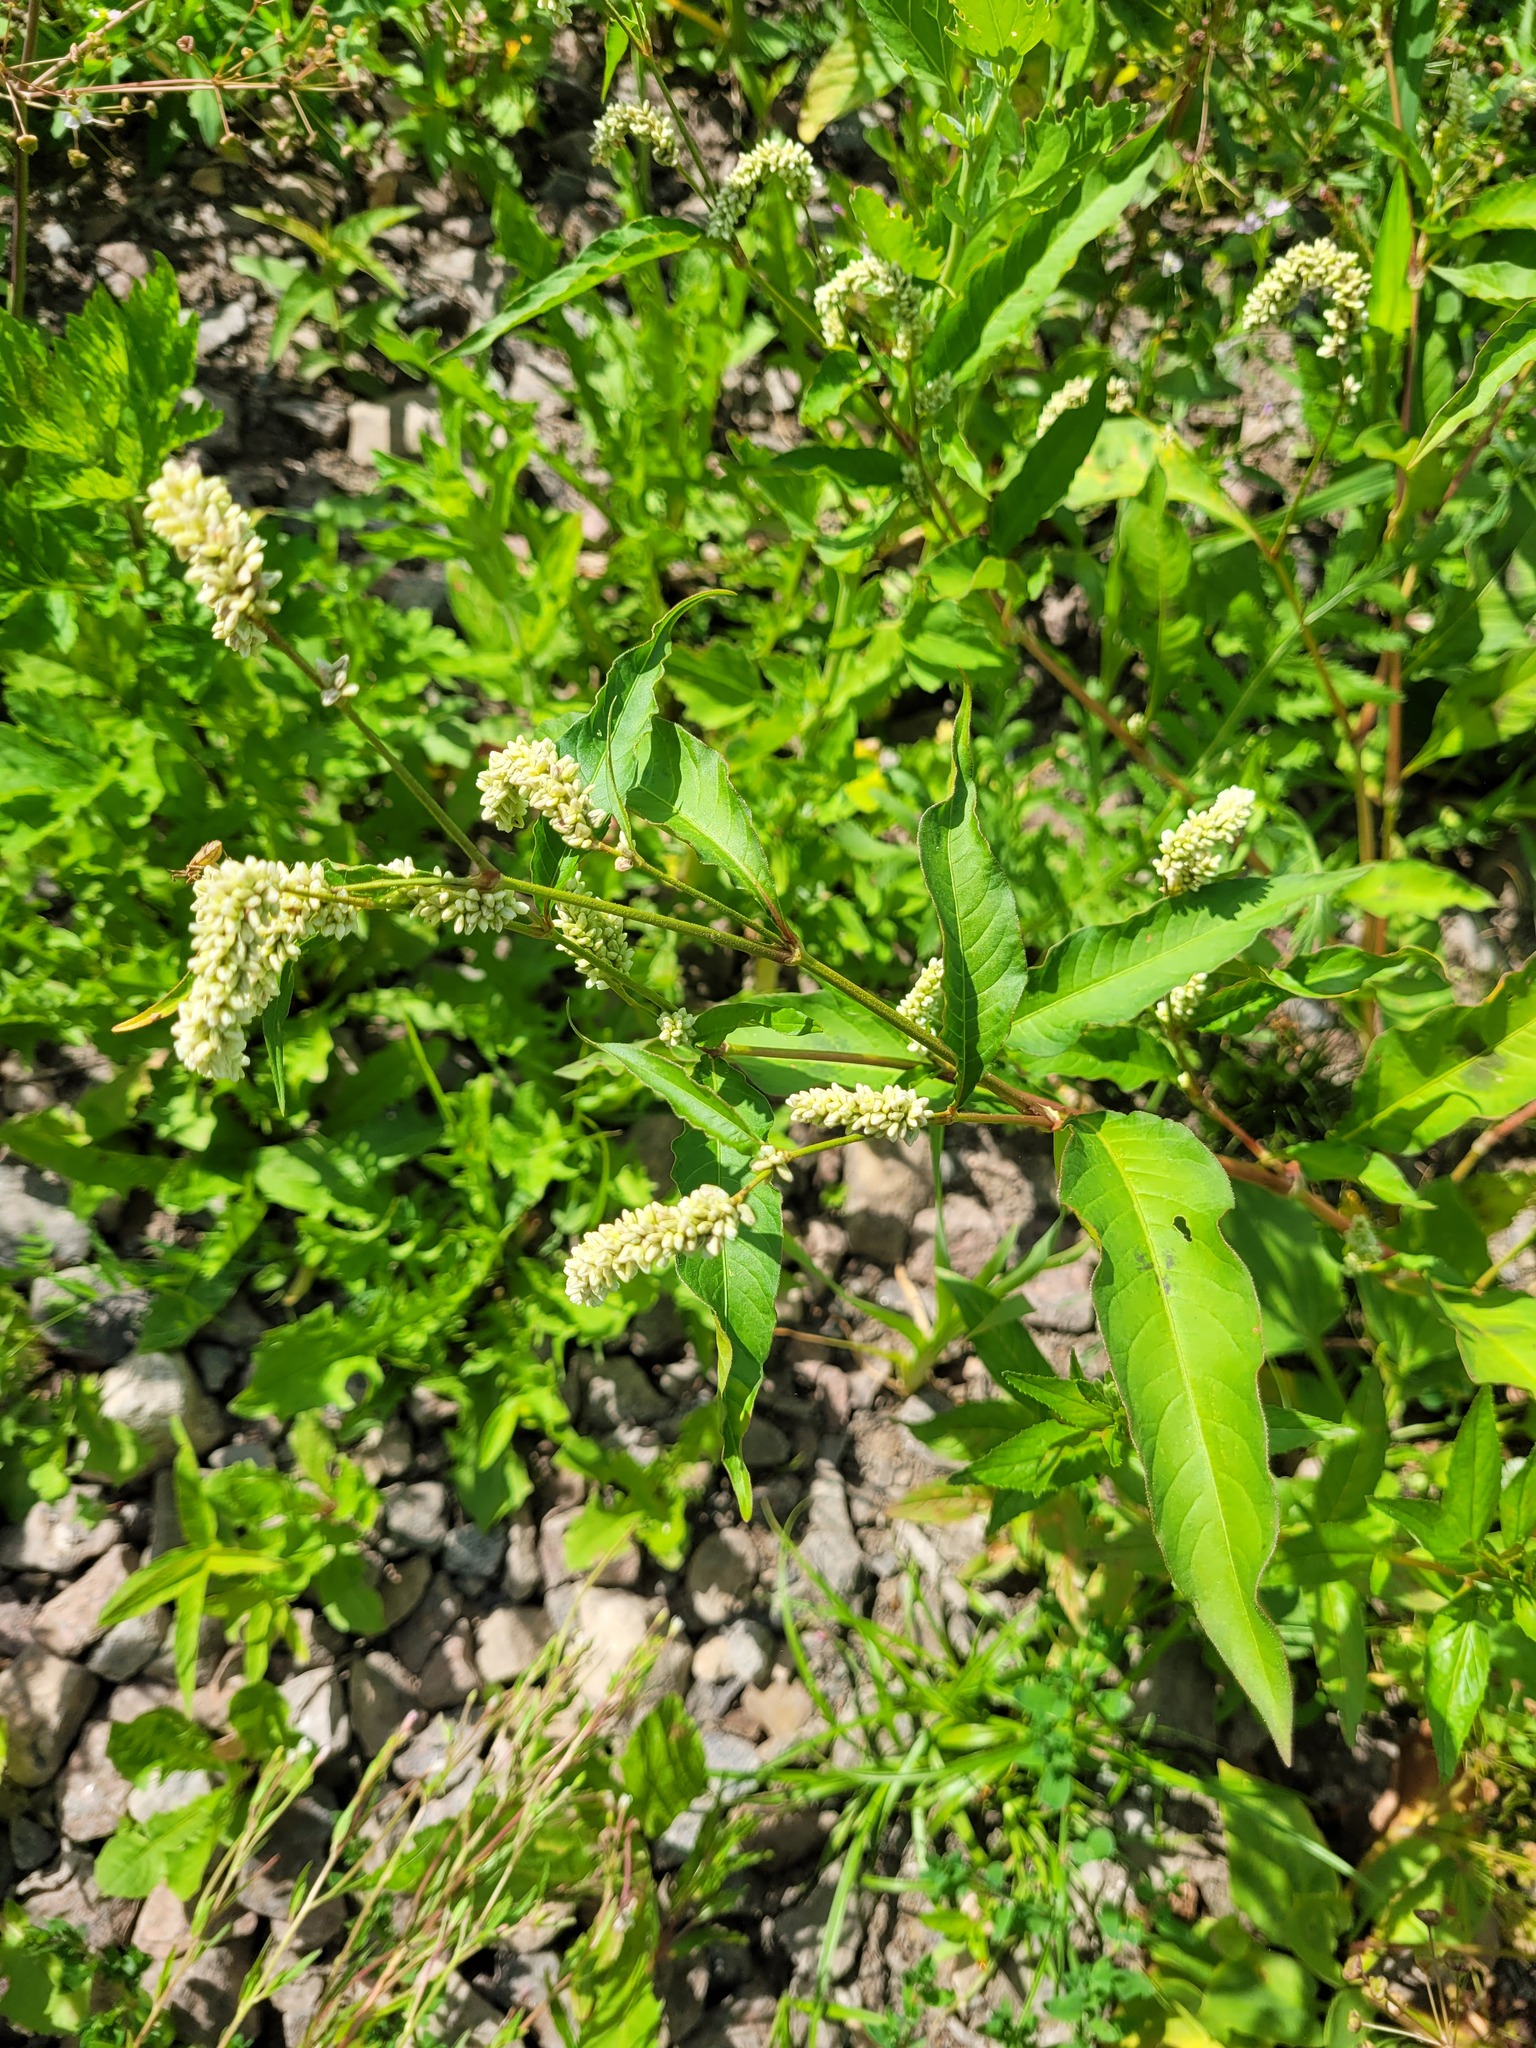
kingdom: Plantae
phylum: Tracheophyta
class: Magnoliopsida
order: Caryophyllales
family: Polygonaceae
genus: Persicaria
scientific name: Persicaria lapathifolia
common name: Curlytop knotweed
